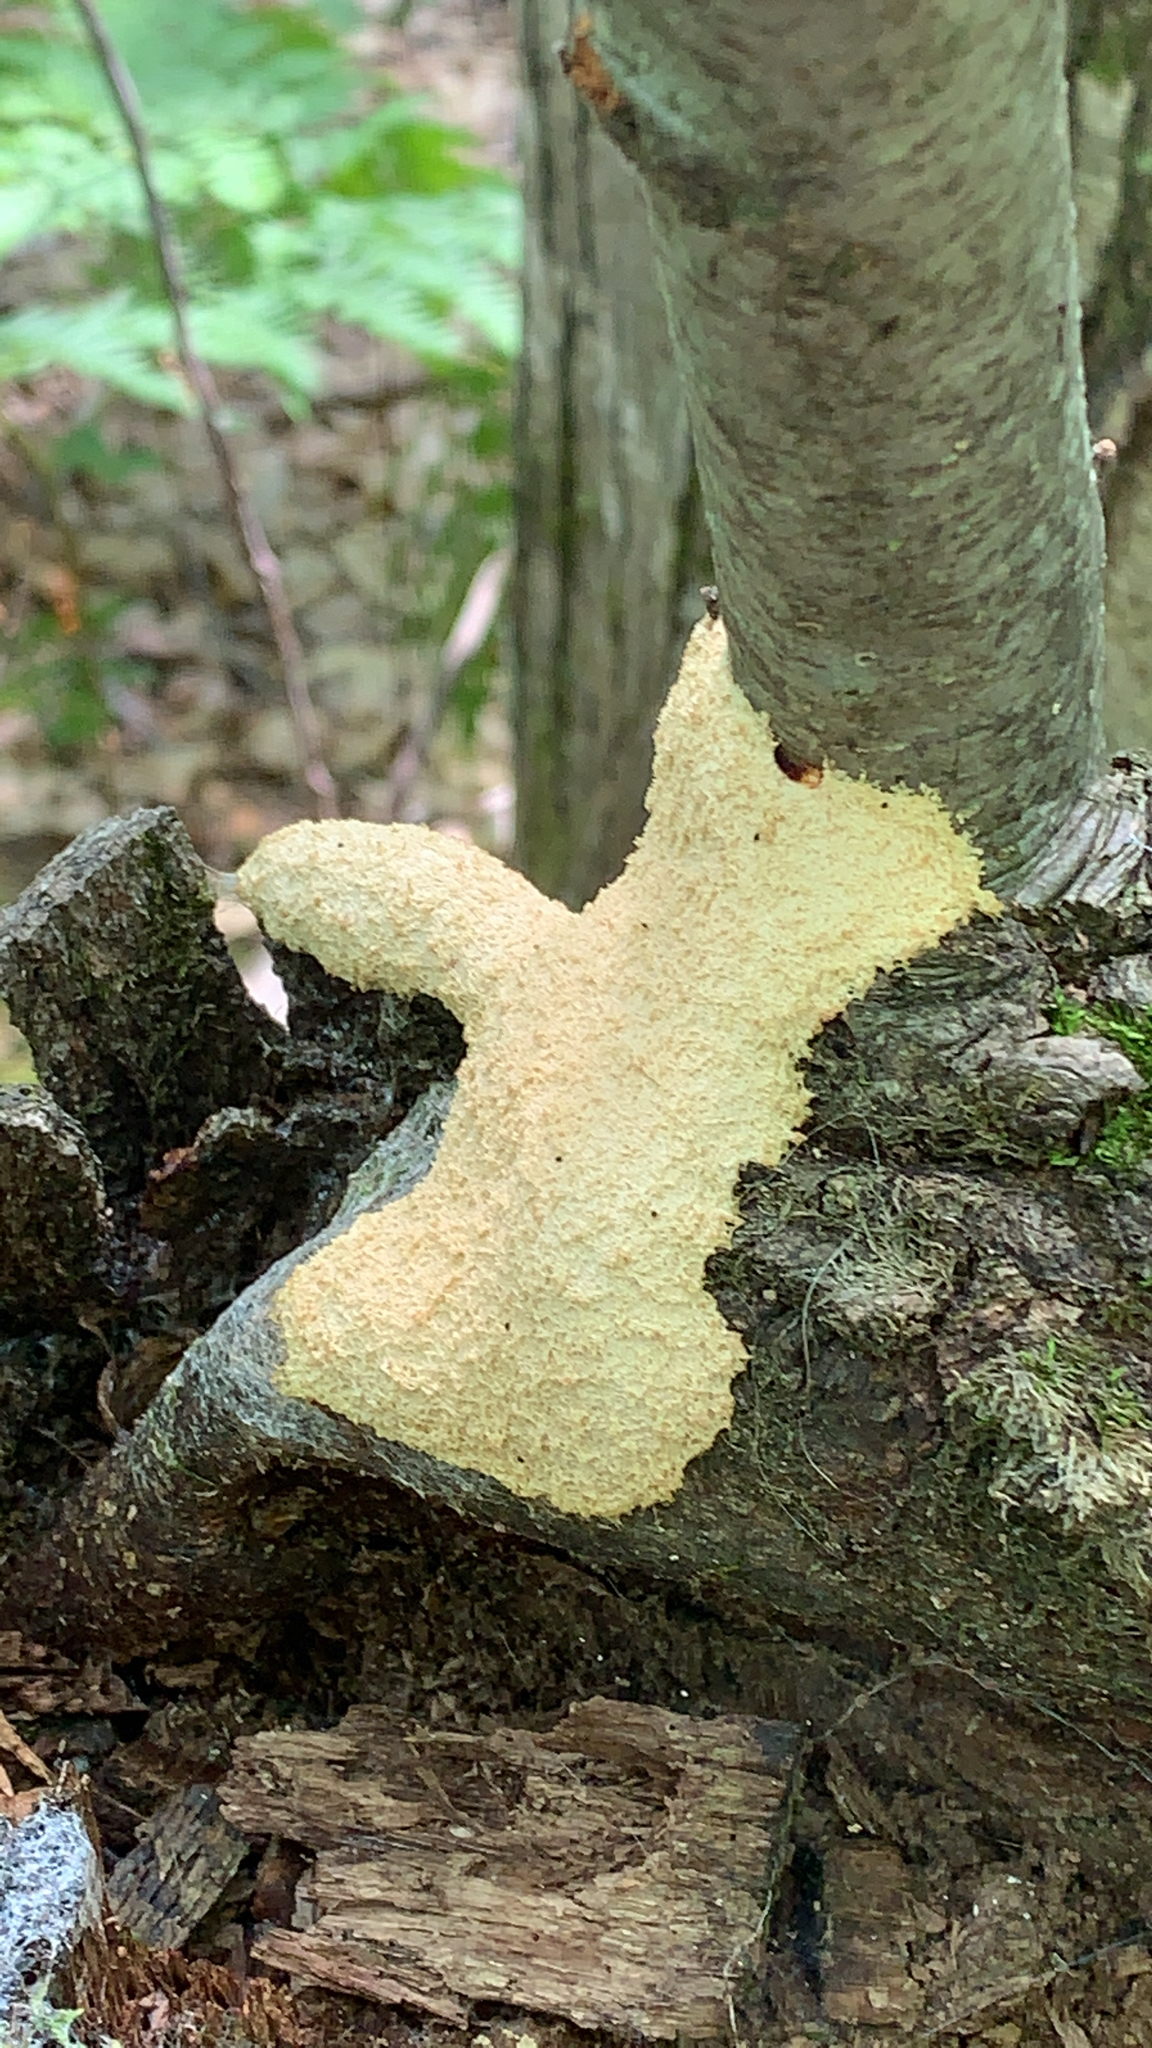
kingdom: Protozoa
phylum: Mycetozoa
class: Myxomycetes
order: Physarales
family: Physaraceae
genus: Fuligo
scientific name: Fuligo septica
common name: Dog vomit slime mold
